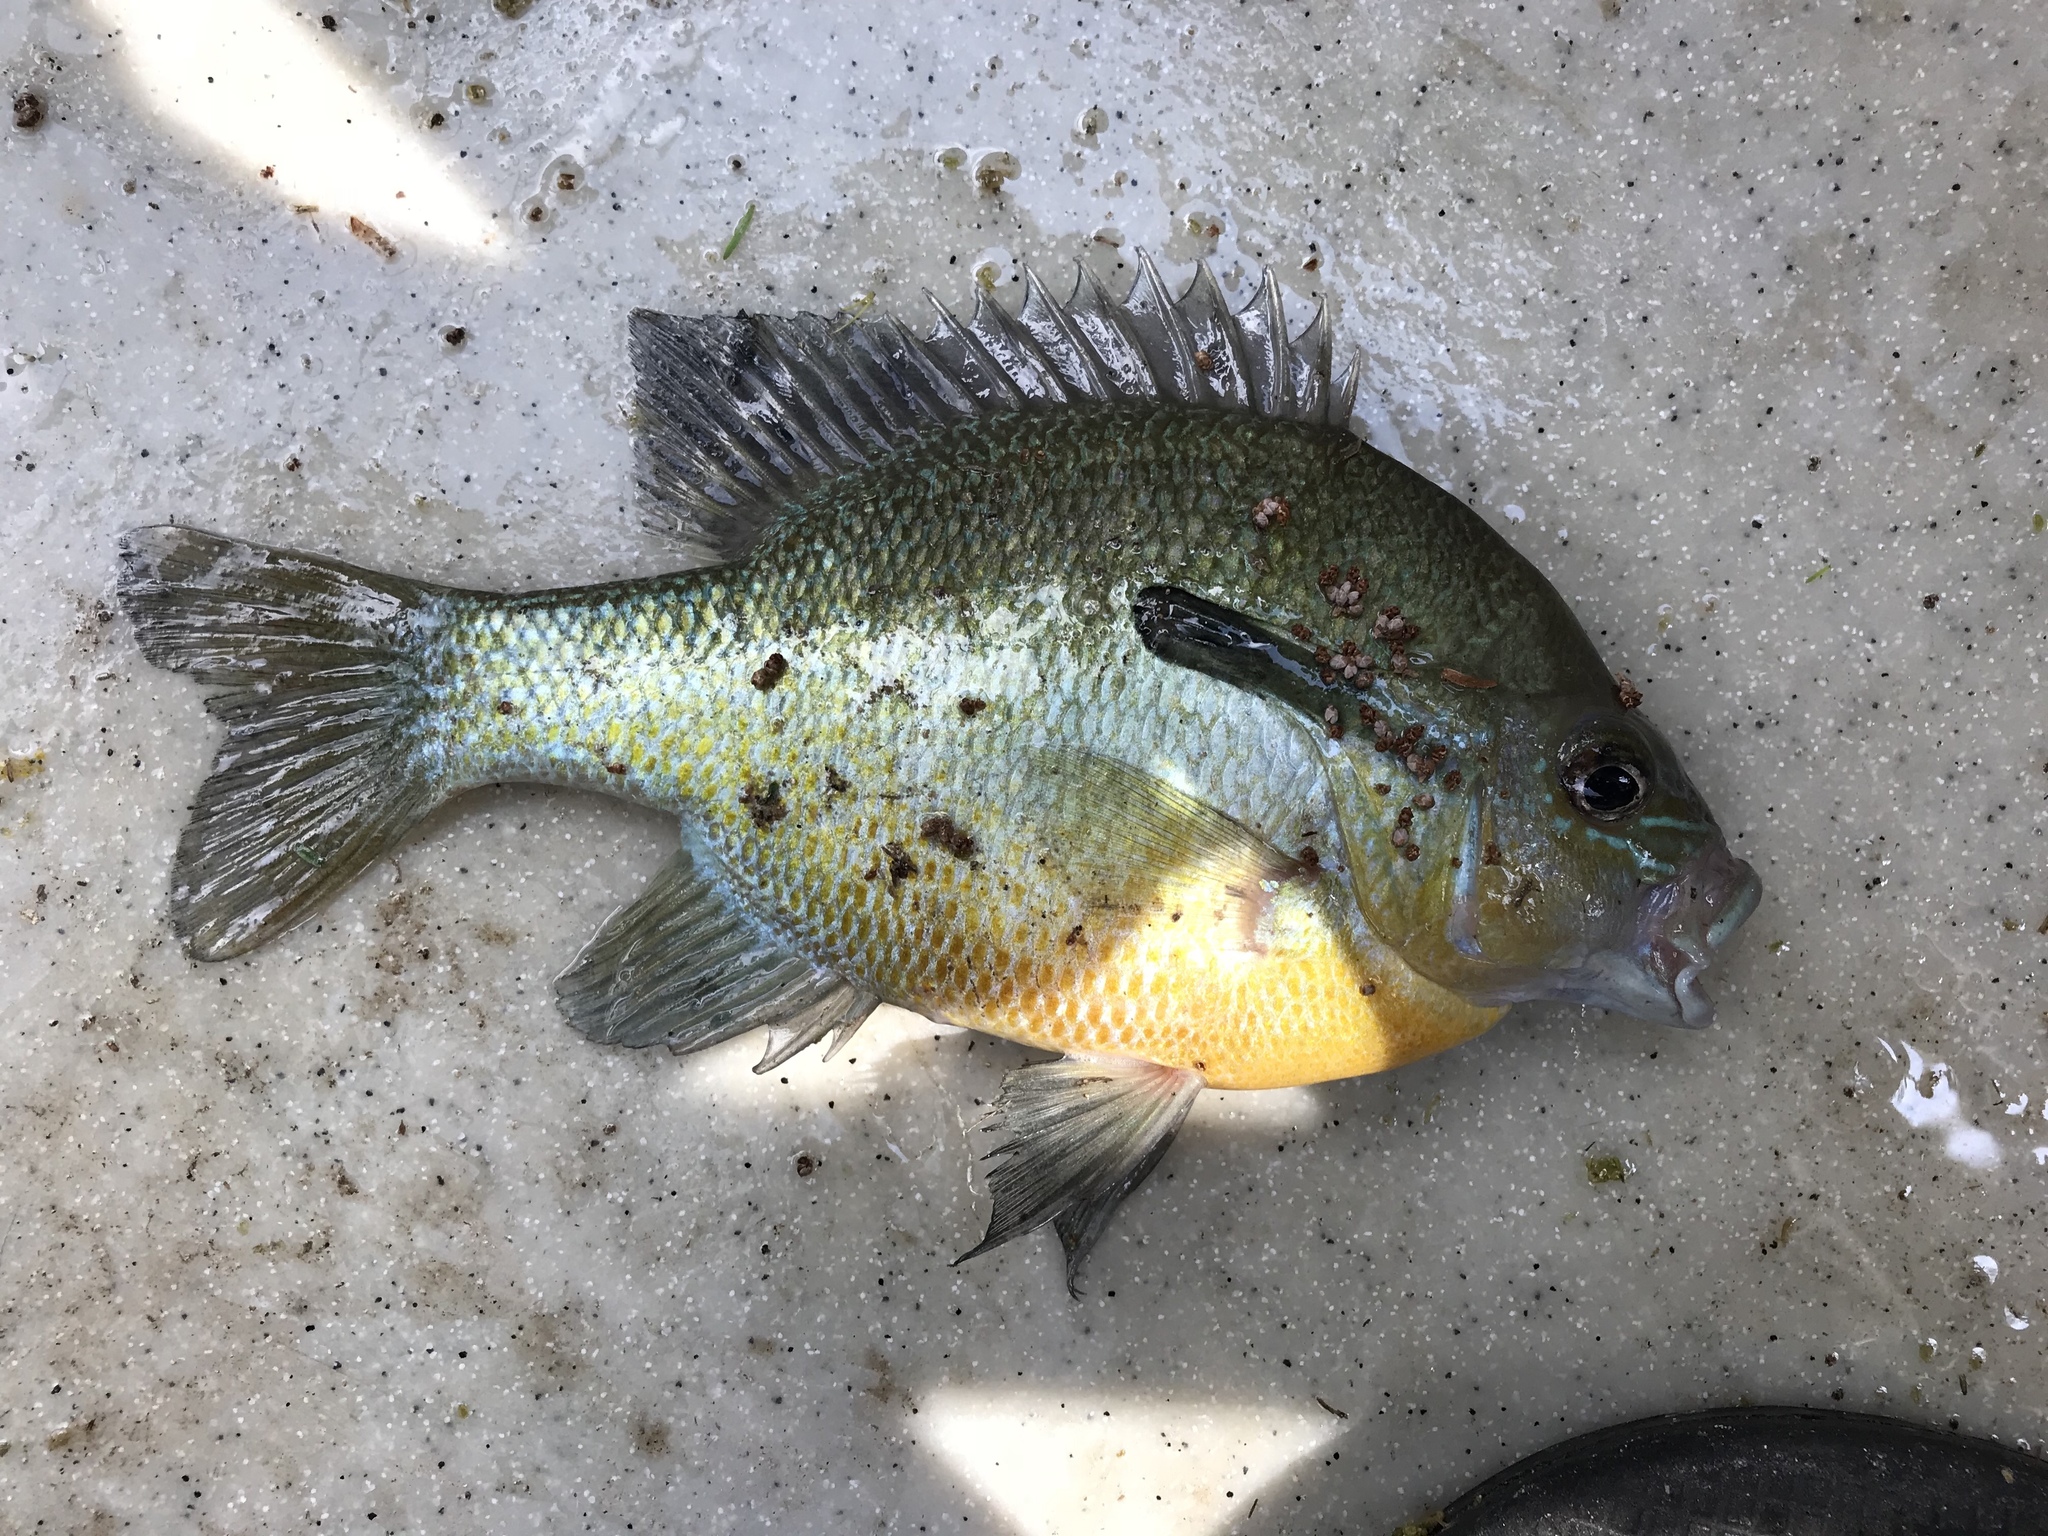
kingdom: Animalia
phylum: Chordata
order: Perciformes
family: Centrarchidae
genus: Lepomis
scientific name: Lepomis auritus
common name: Redbreast sunfish
